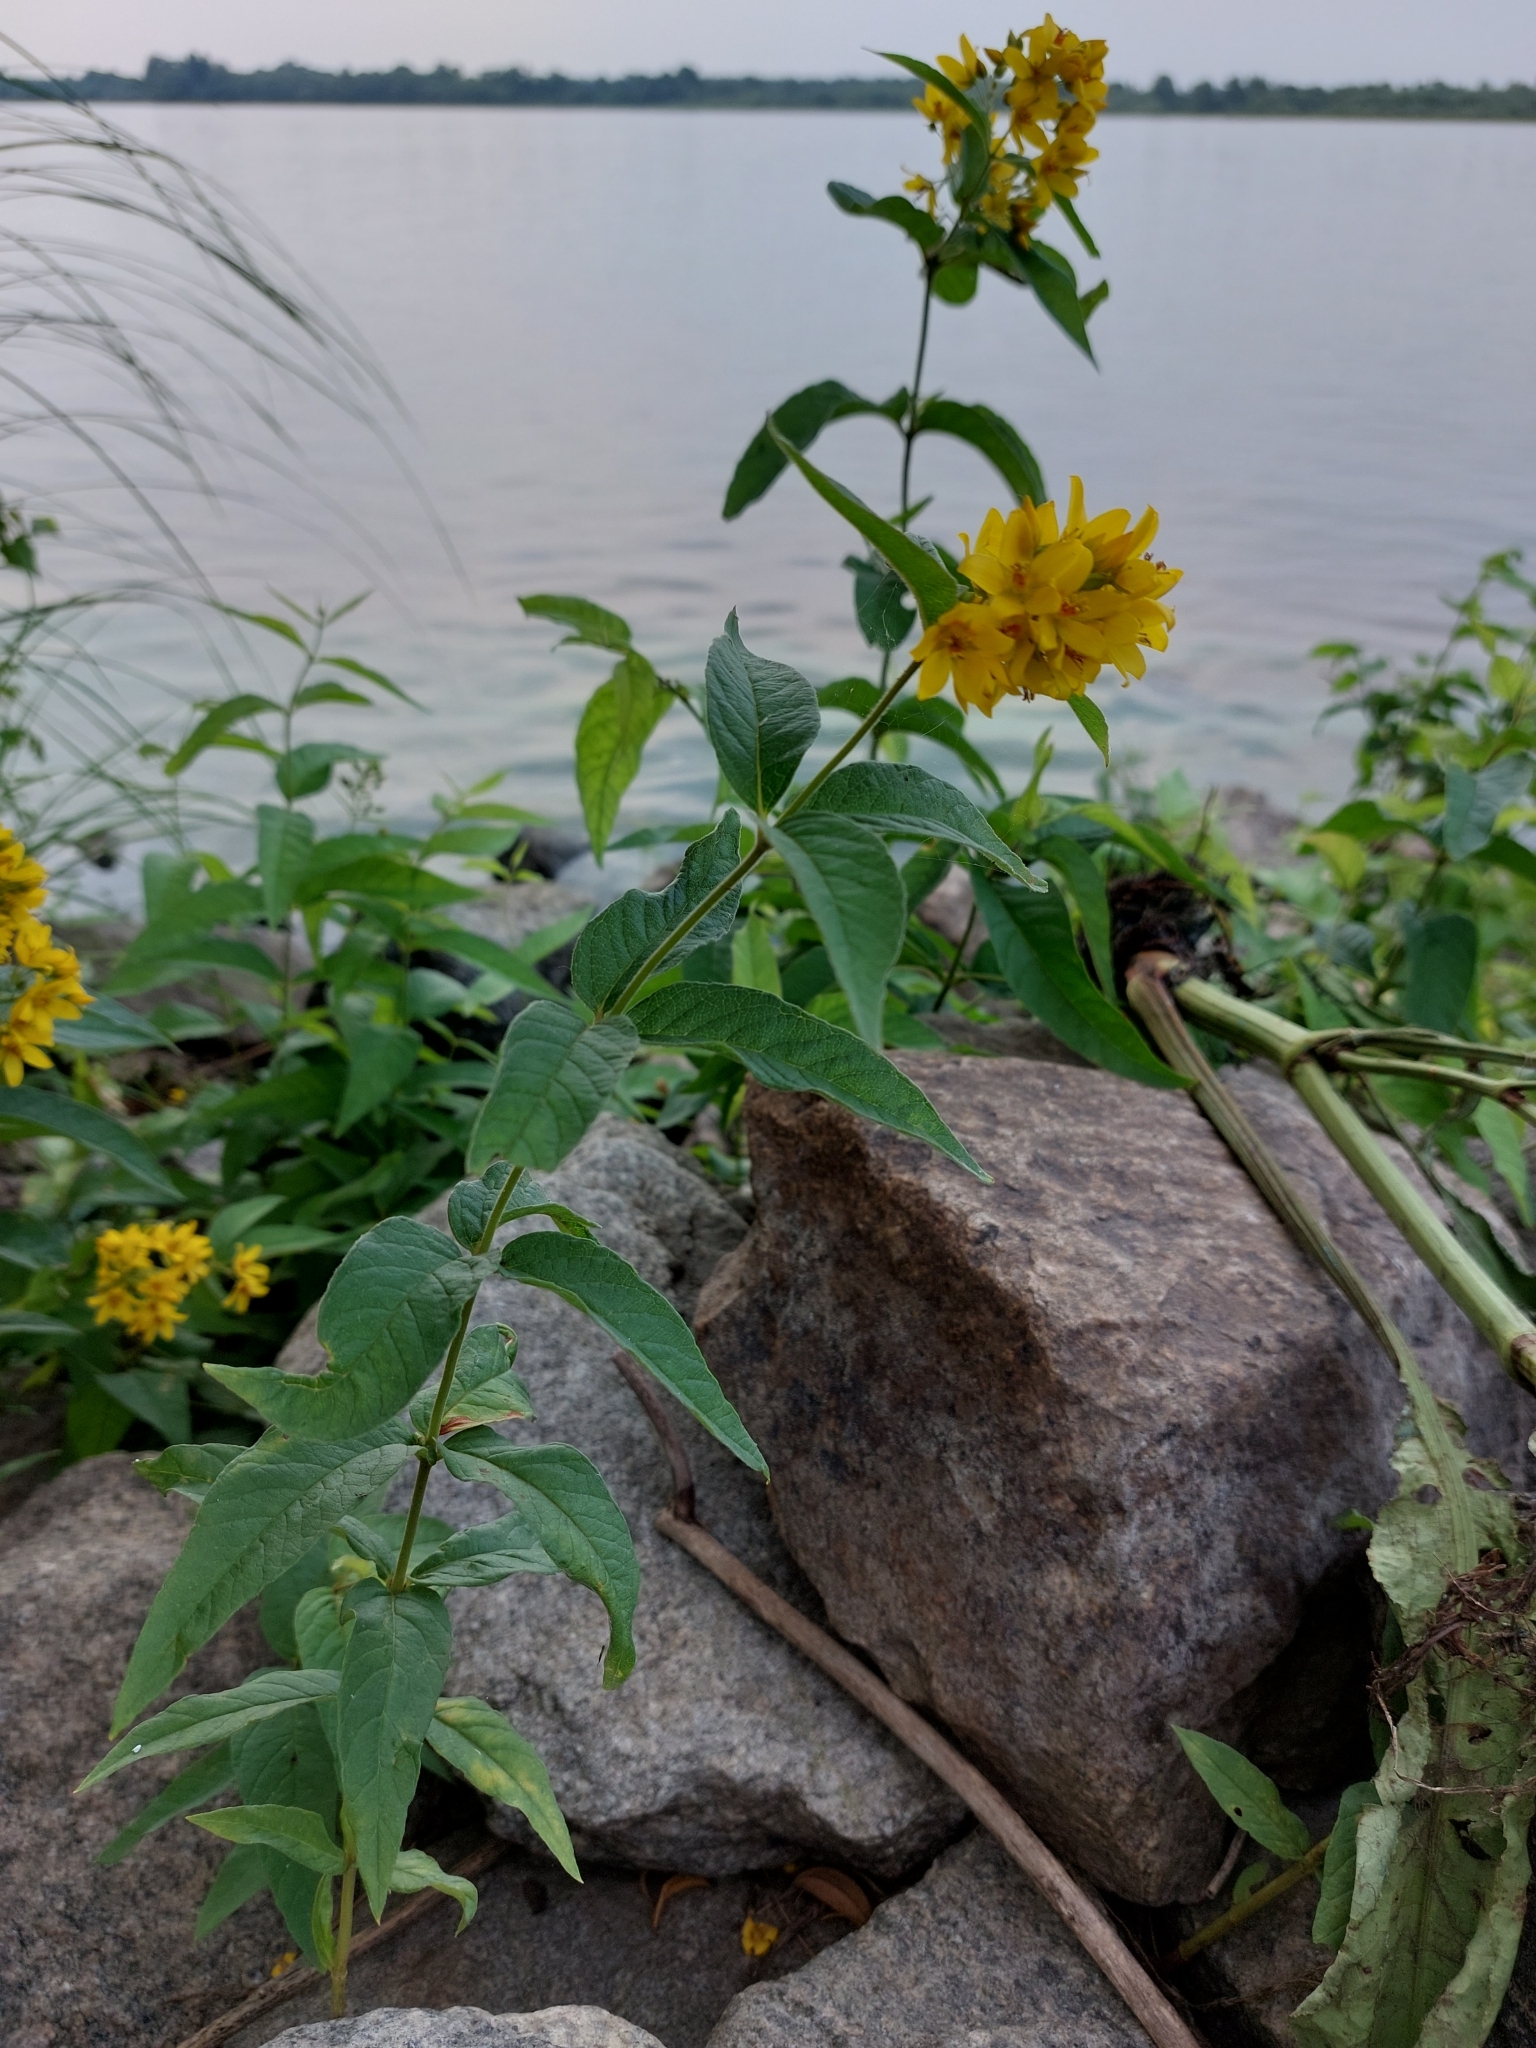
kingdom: Plantae
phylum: Tracheophyta
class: Magnoliopsida
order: Ericales
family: Primulaceae
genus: Lysimachia
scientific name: Lysimachia vulgaris
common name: Yellow loosestrife
